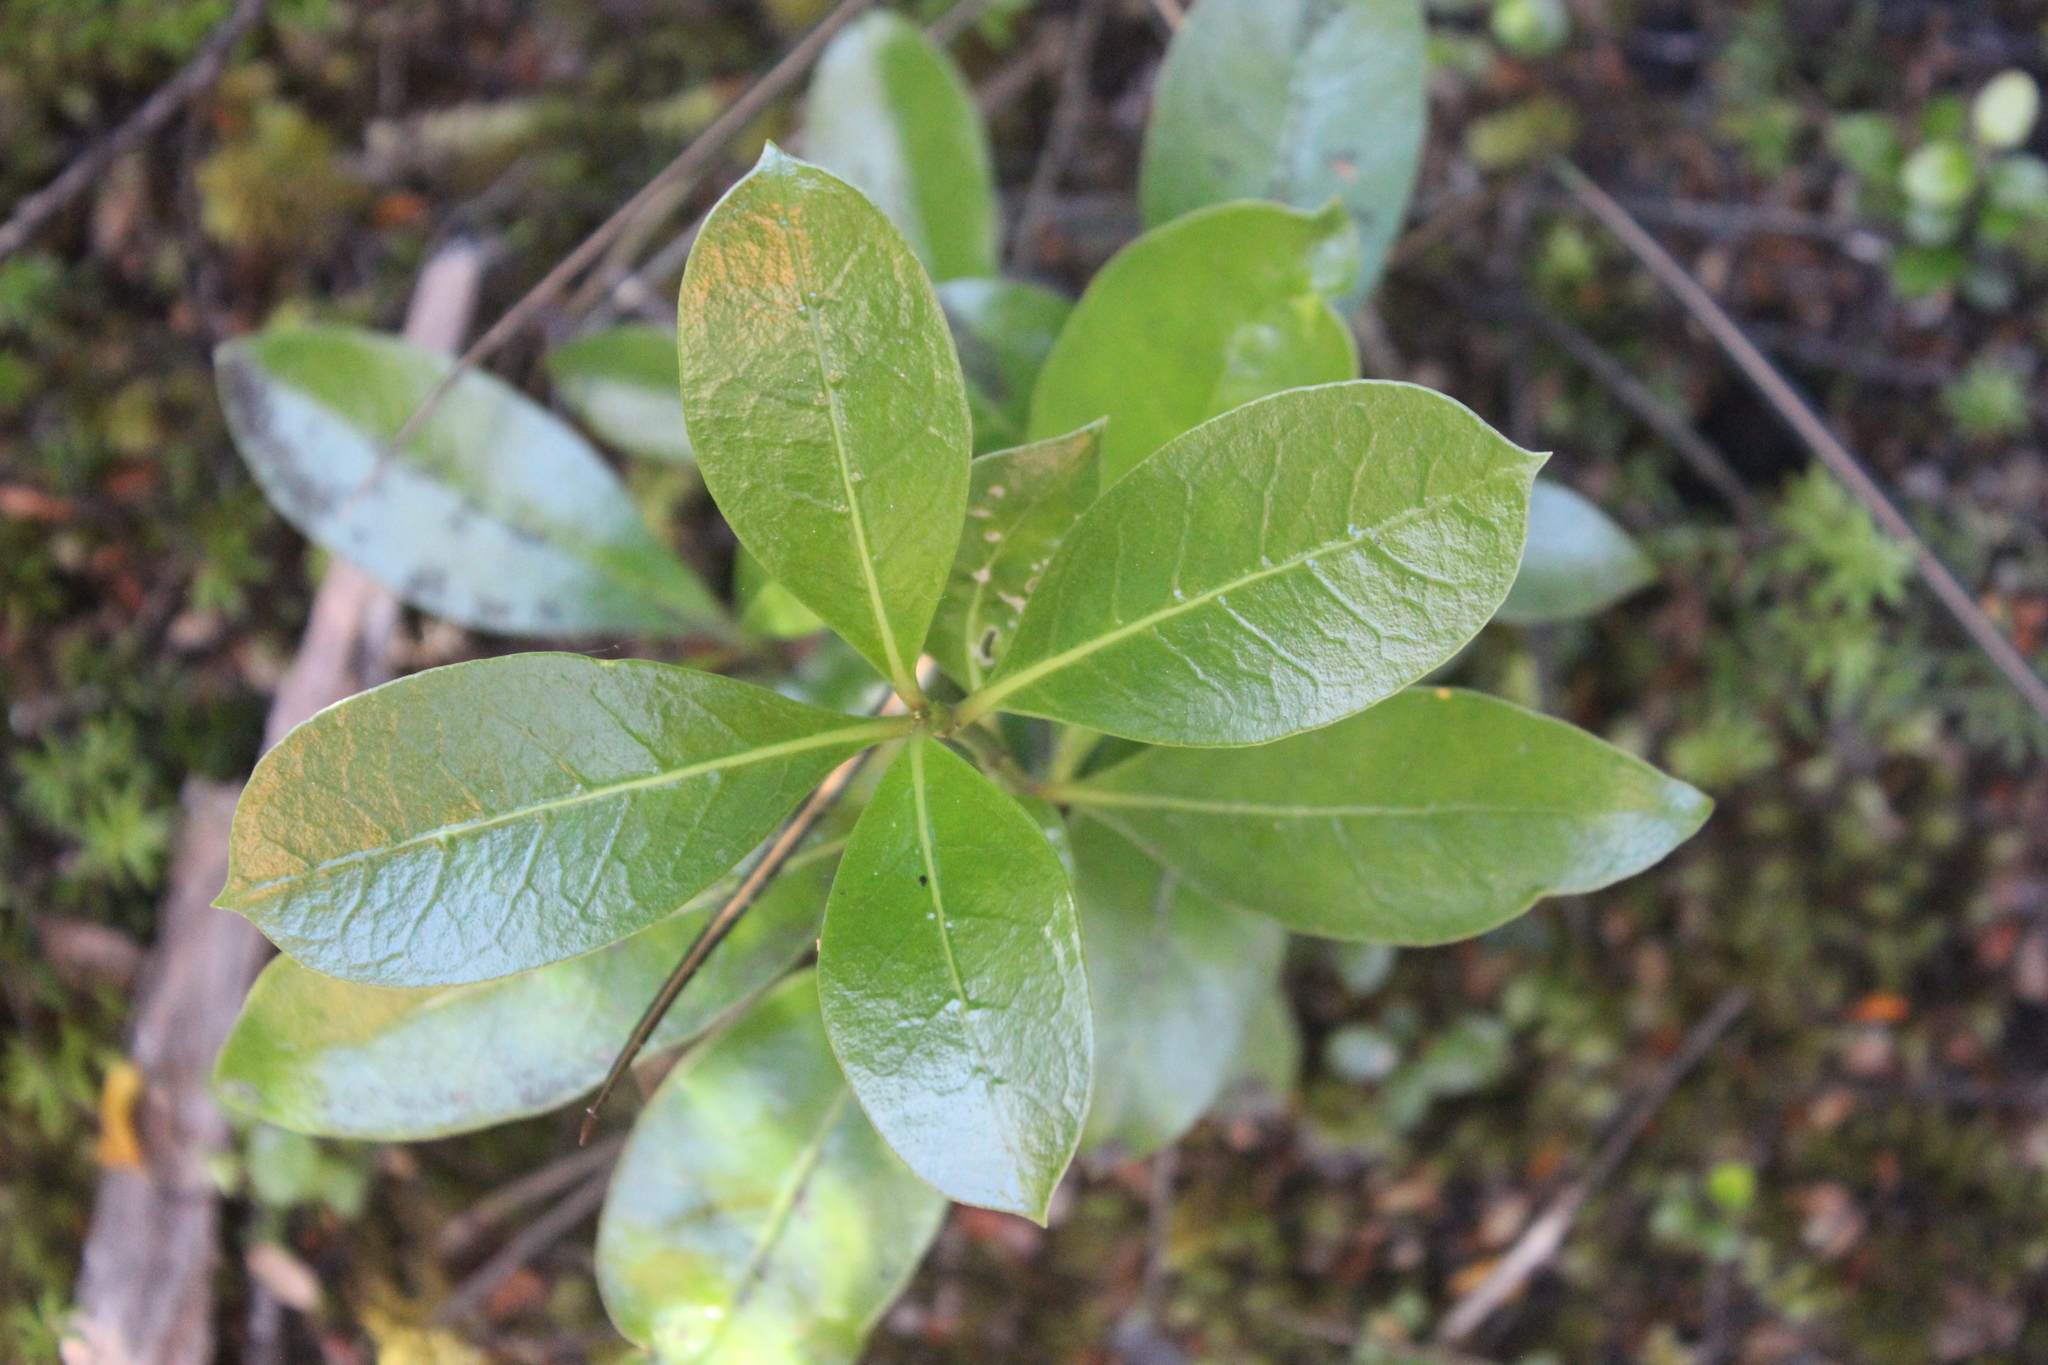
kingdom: Plantae
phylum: Tracheophyta
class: Magnoliopsida
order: Gentianales
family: Rubiaceae
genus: Coprosma
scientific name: Coprosma lucida
